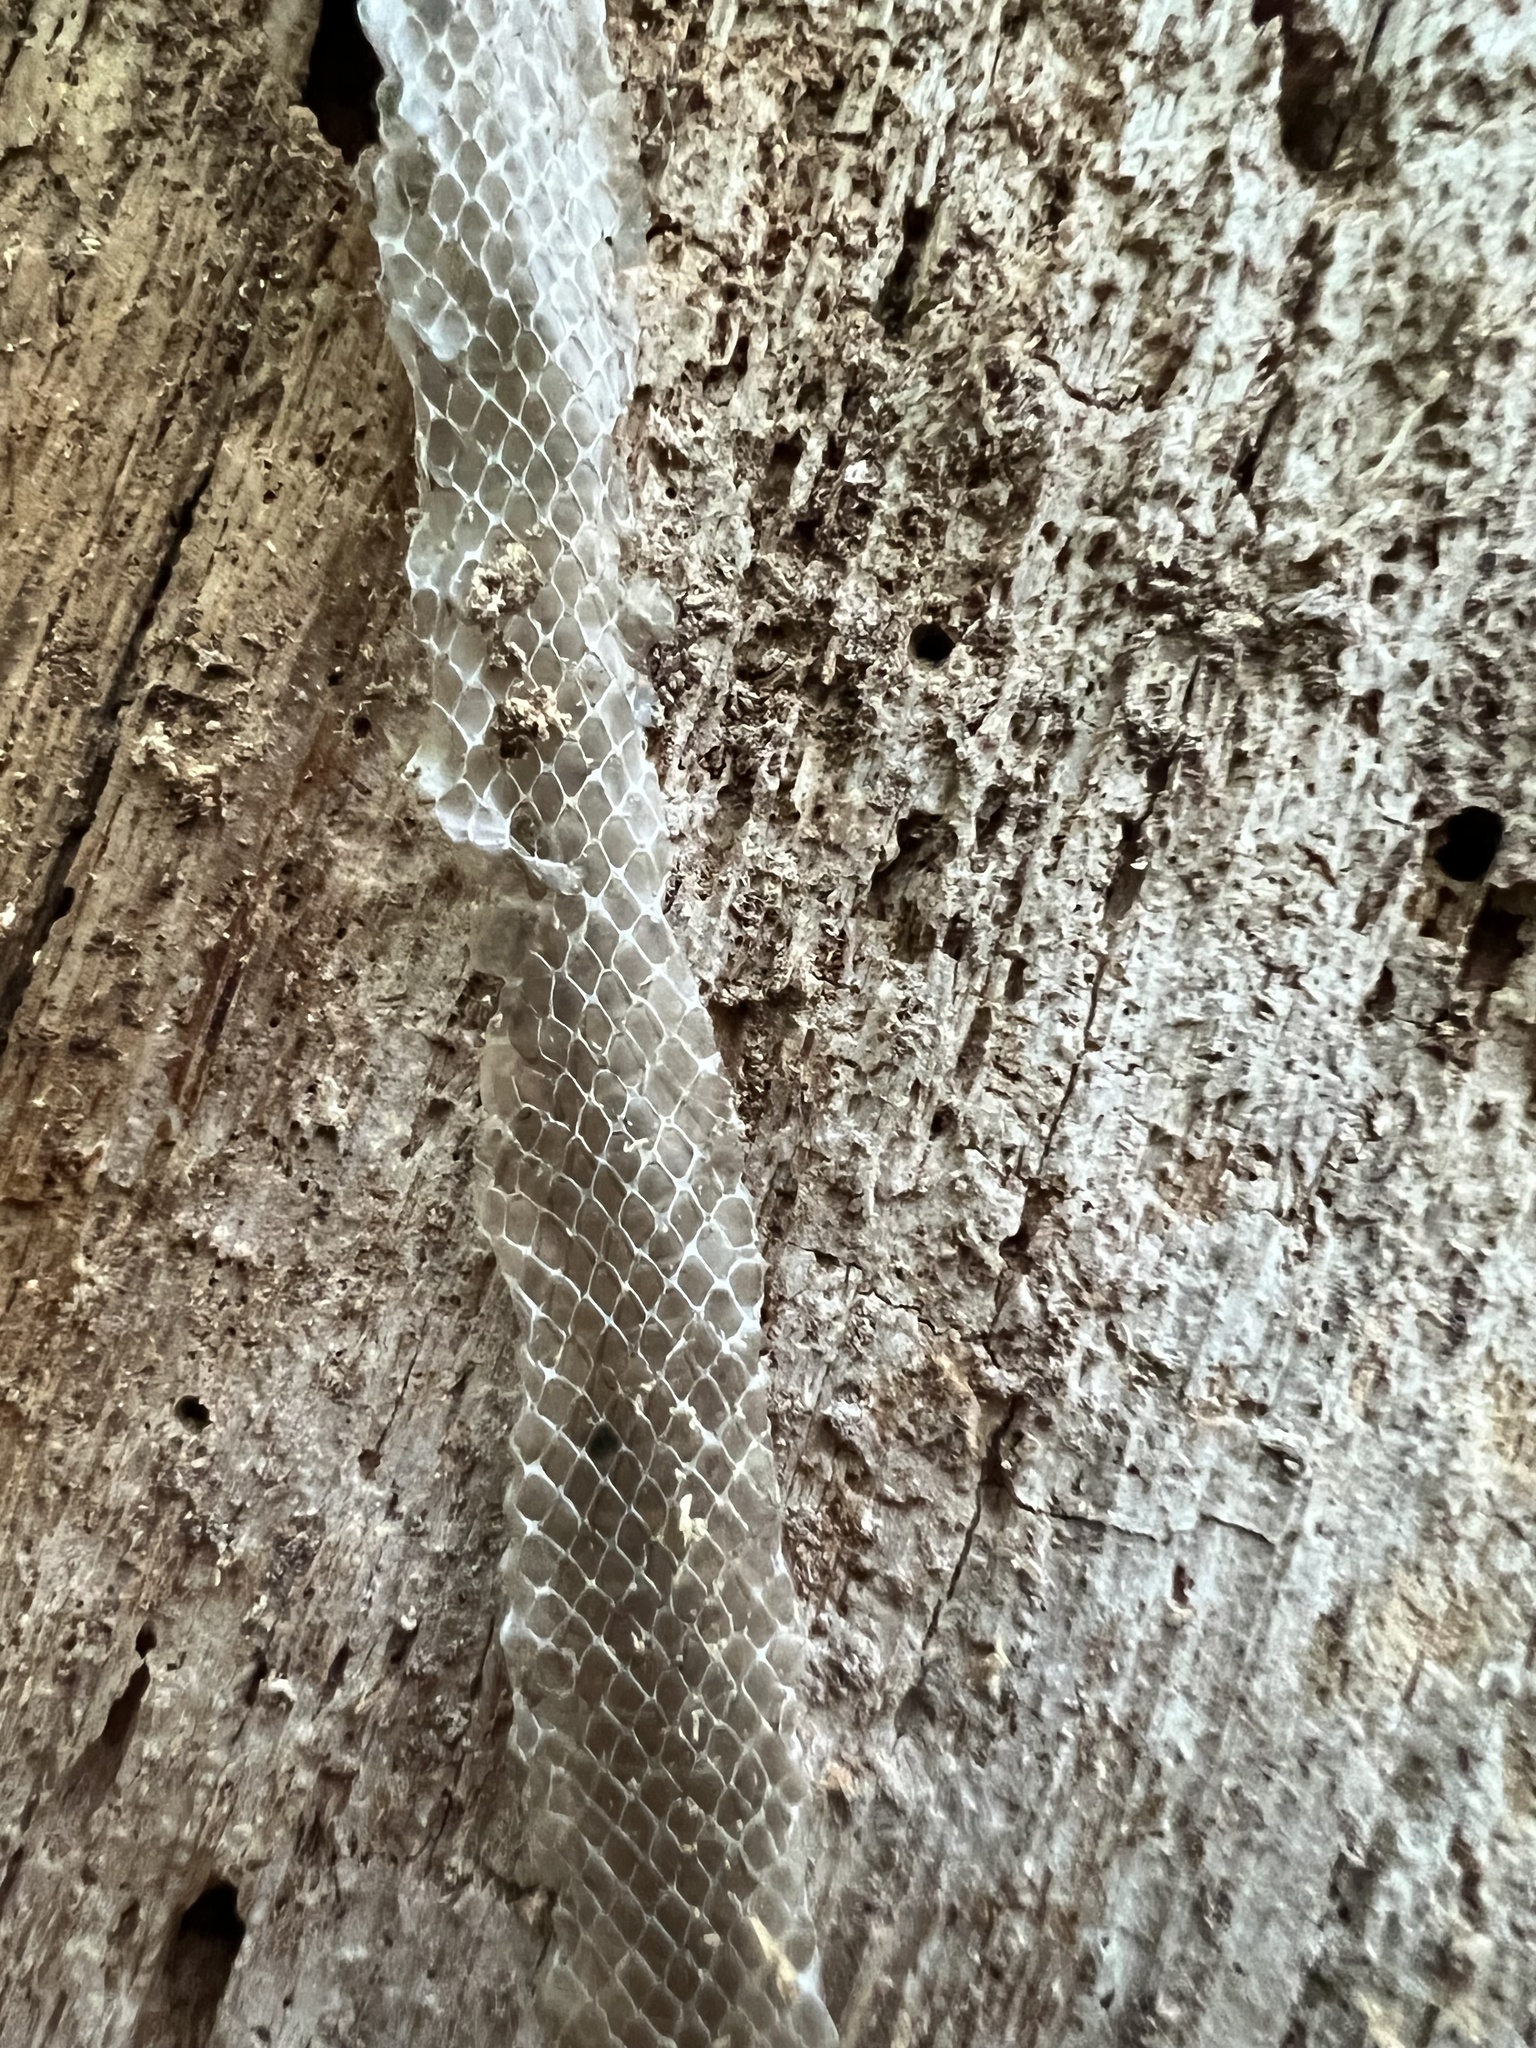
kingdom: Animalia
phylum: Chordata
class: Squamata
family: Colubridae
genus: Coluber
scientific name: Coluber constrictor
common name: Eastern racer
